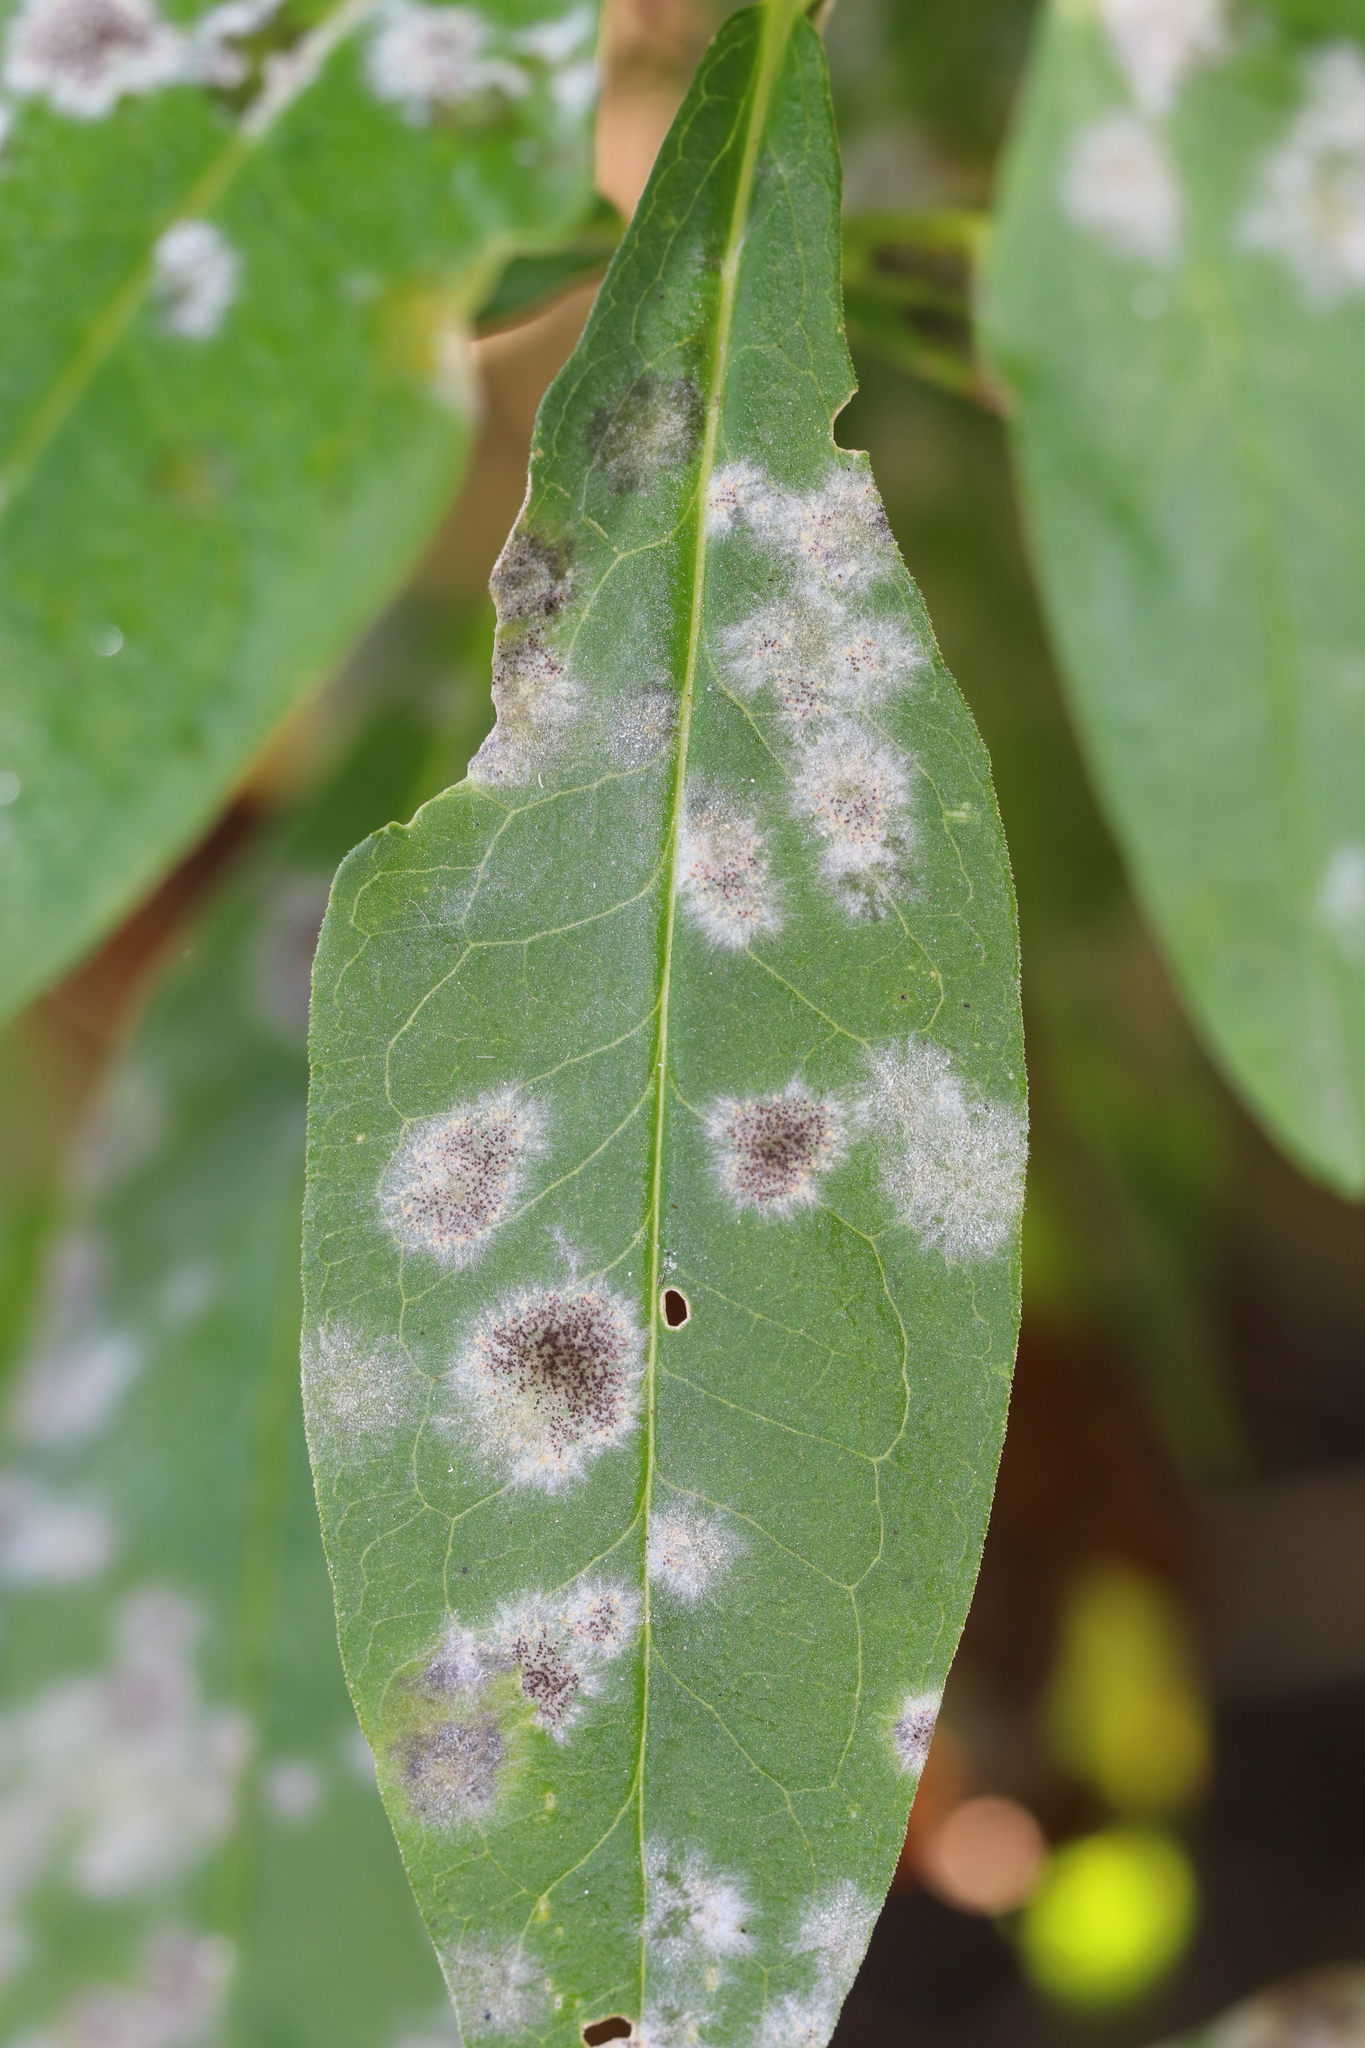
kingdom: Fungi
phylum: Ascomycota
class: Leotiomycetes
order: Helotiales
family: Erysiphaceae
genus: Golovinomyces
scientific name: Golovinomyces magnicellulatus
